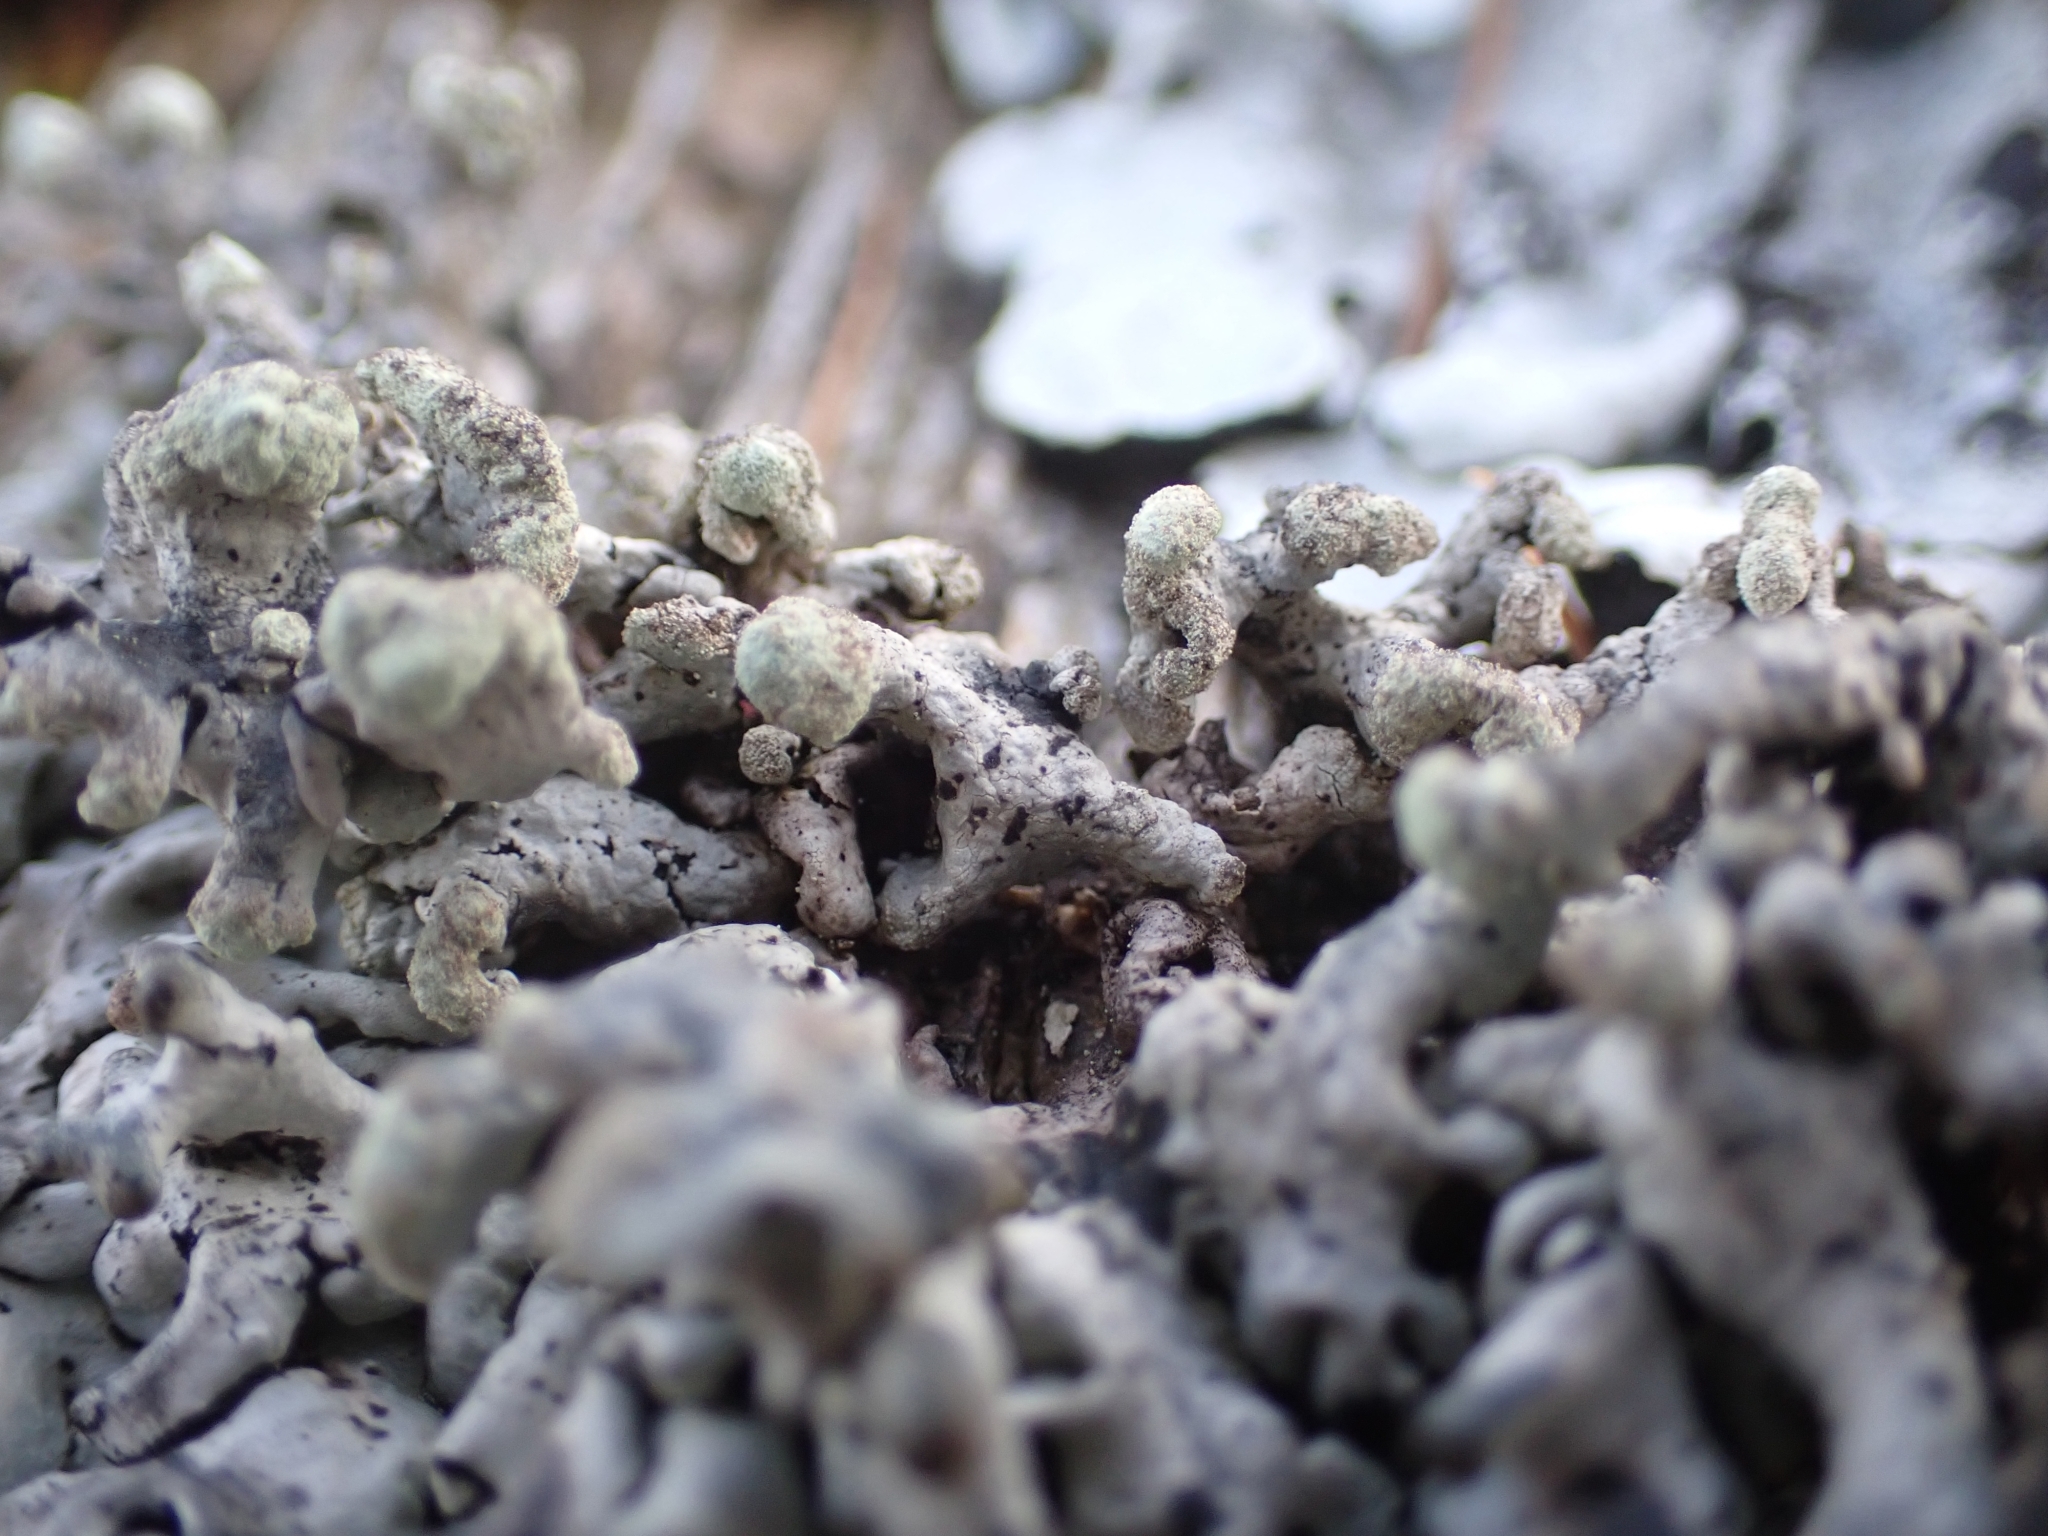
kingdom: Fungi
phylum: Ascomycota
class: Lecanoromycetes
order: Lecanorales
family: Parmeliaceae
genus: Hypogymnia
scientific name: Hypogymnia tubulosa
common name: Powder-headed tube lichen
